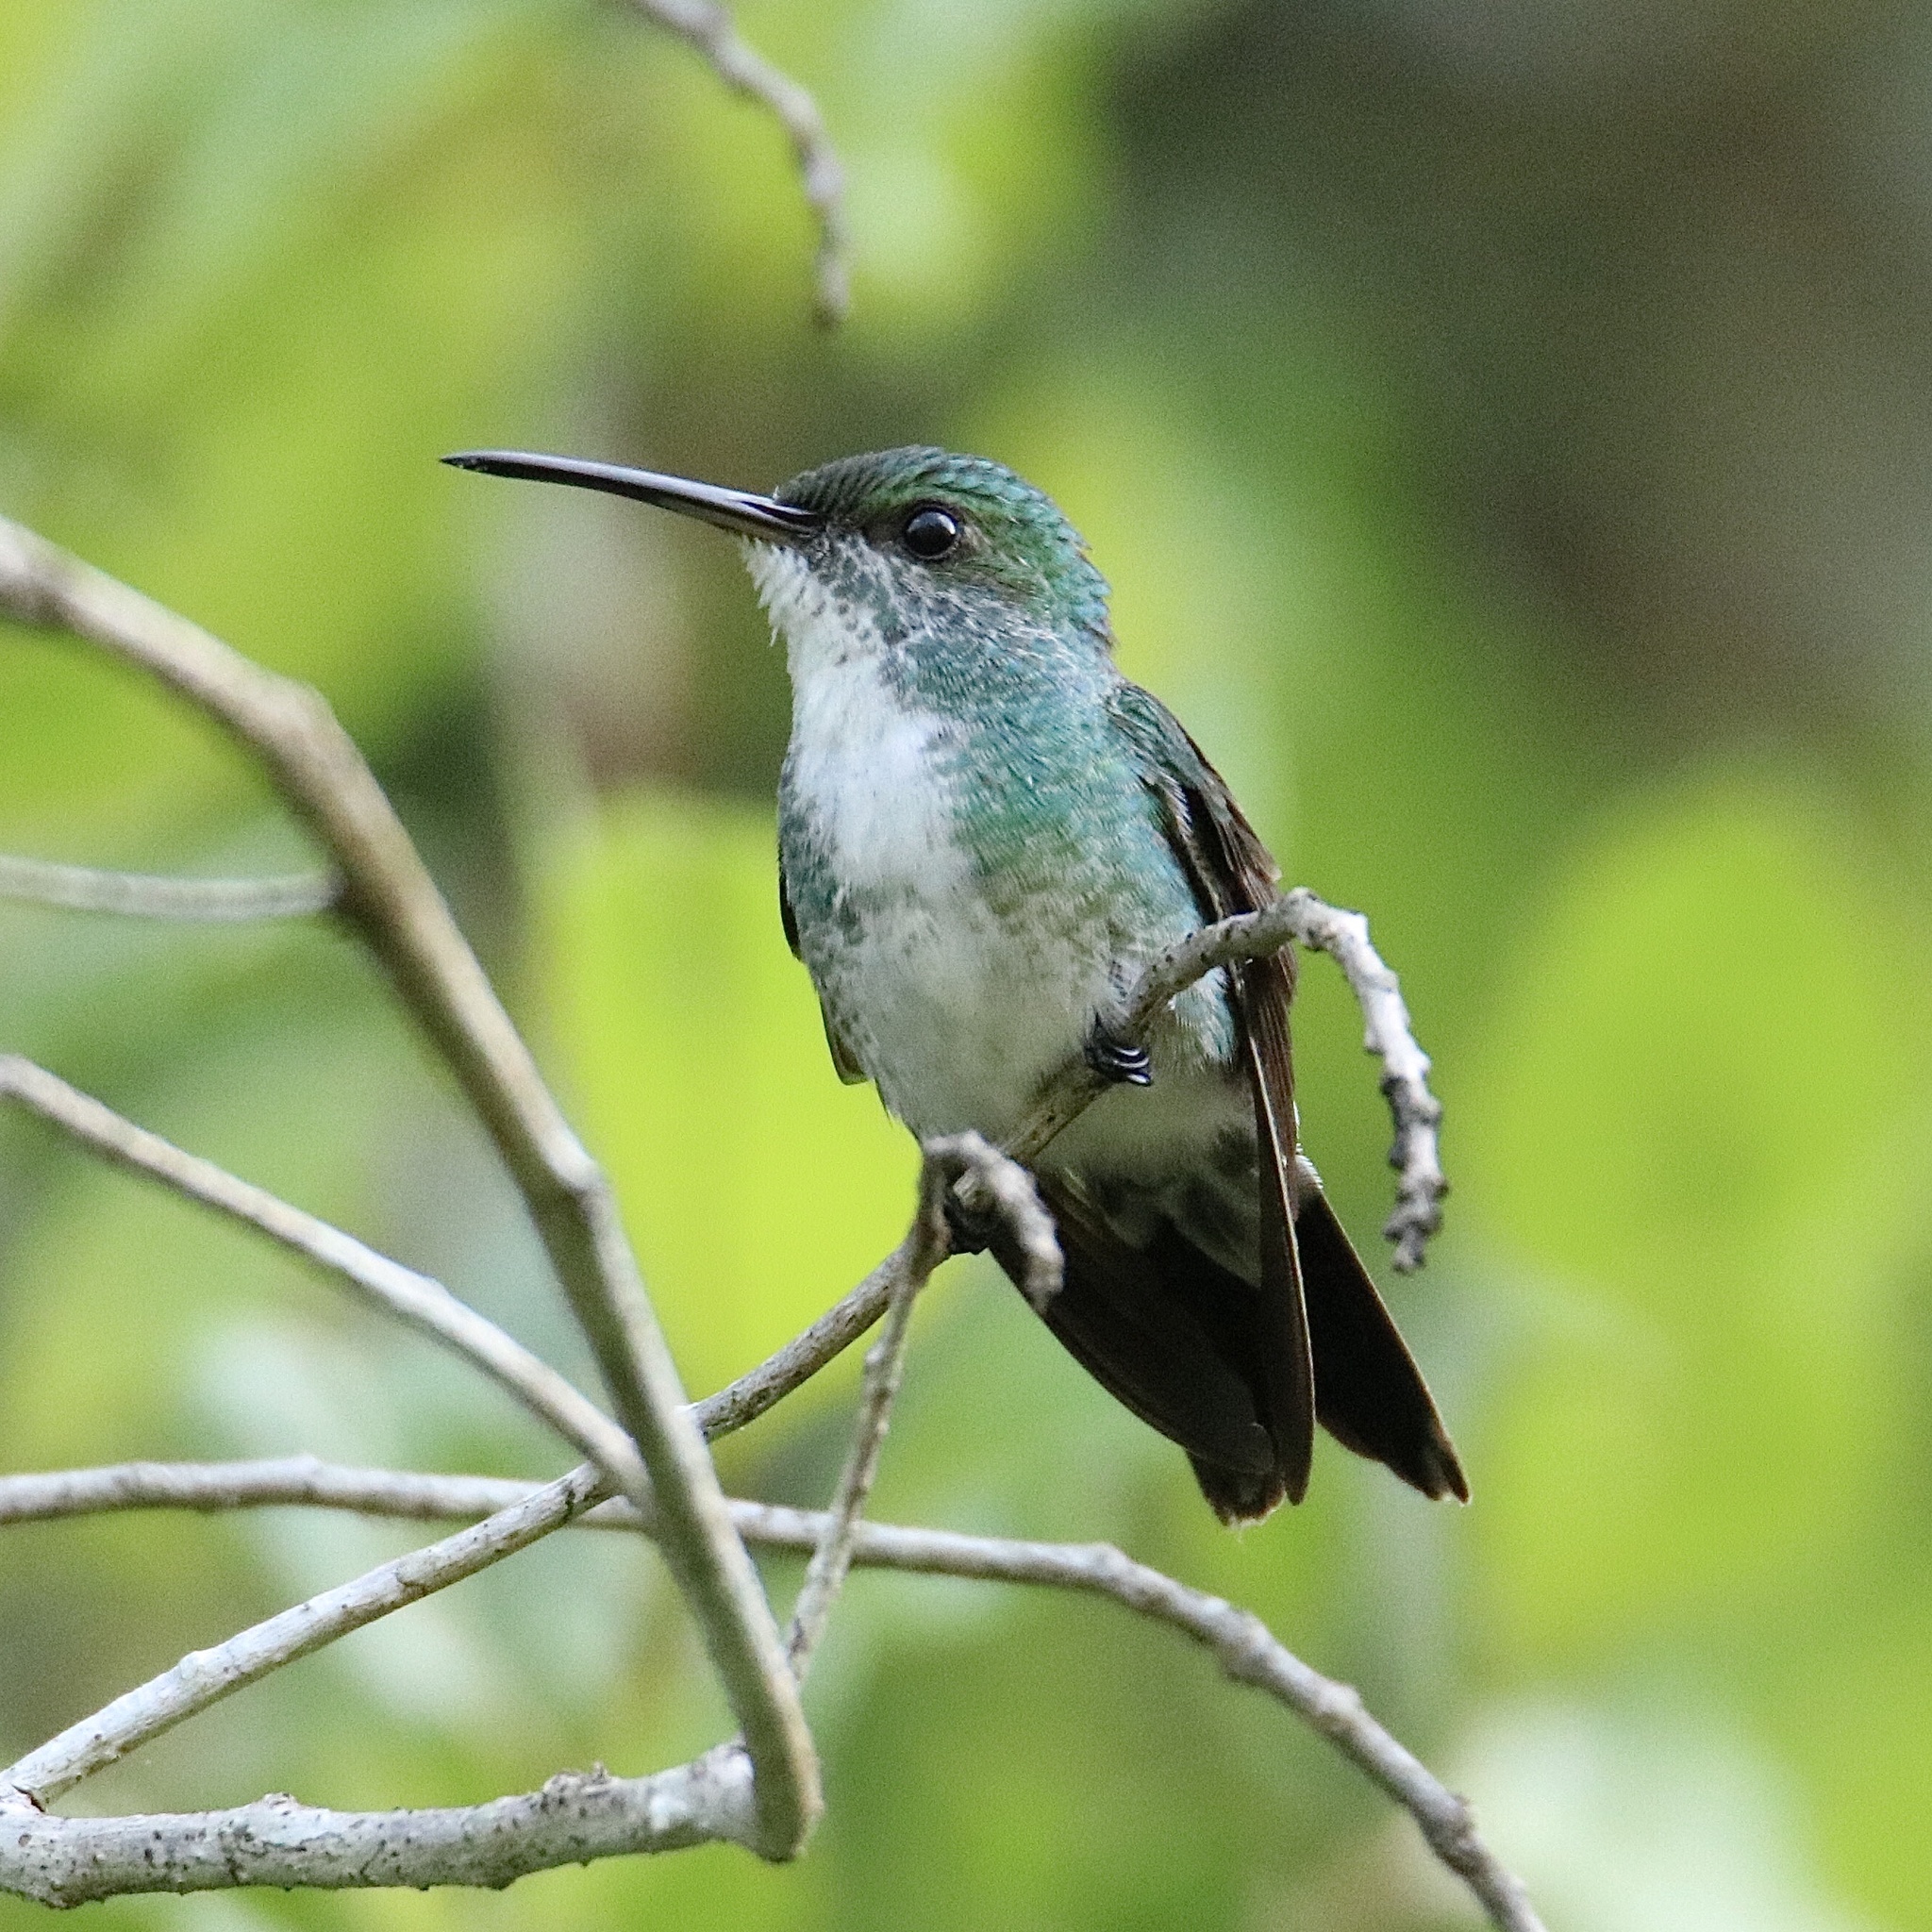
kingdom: Animalia
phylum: Chordata
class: Aves
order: Apodiformes
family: Trochilidae
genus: Chrysuronia
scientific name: Chrysuronia coeruleogularis
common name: Sapphire-throated hummingbird
